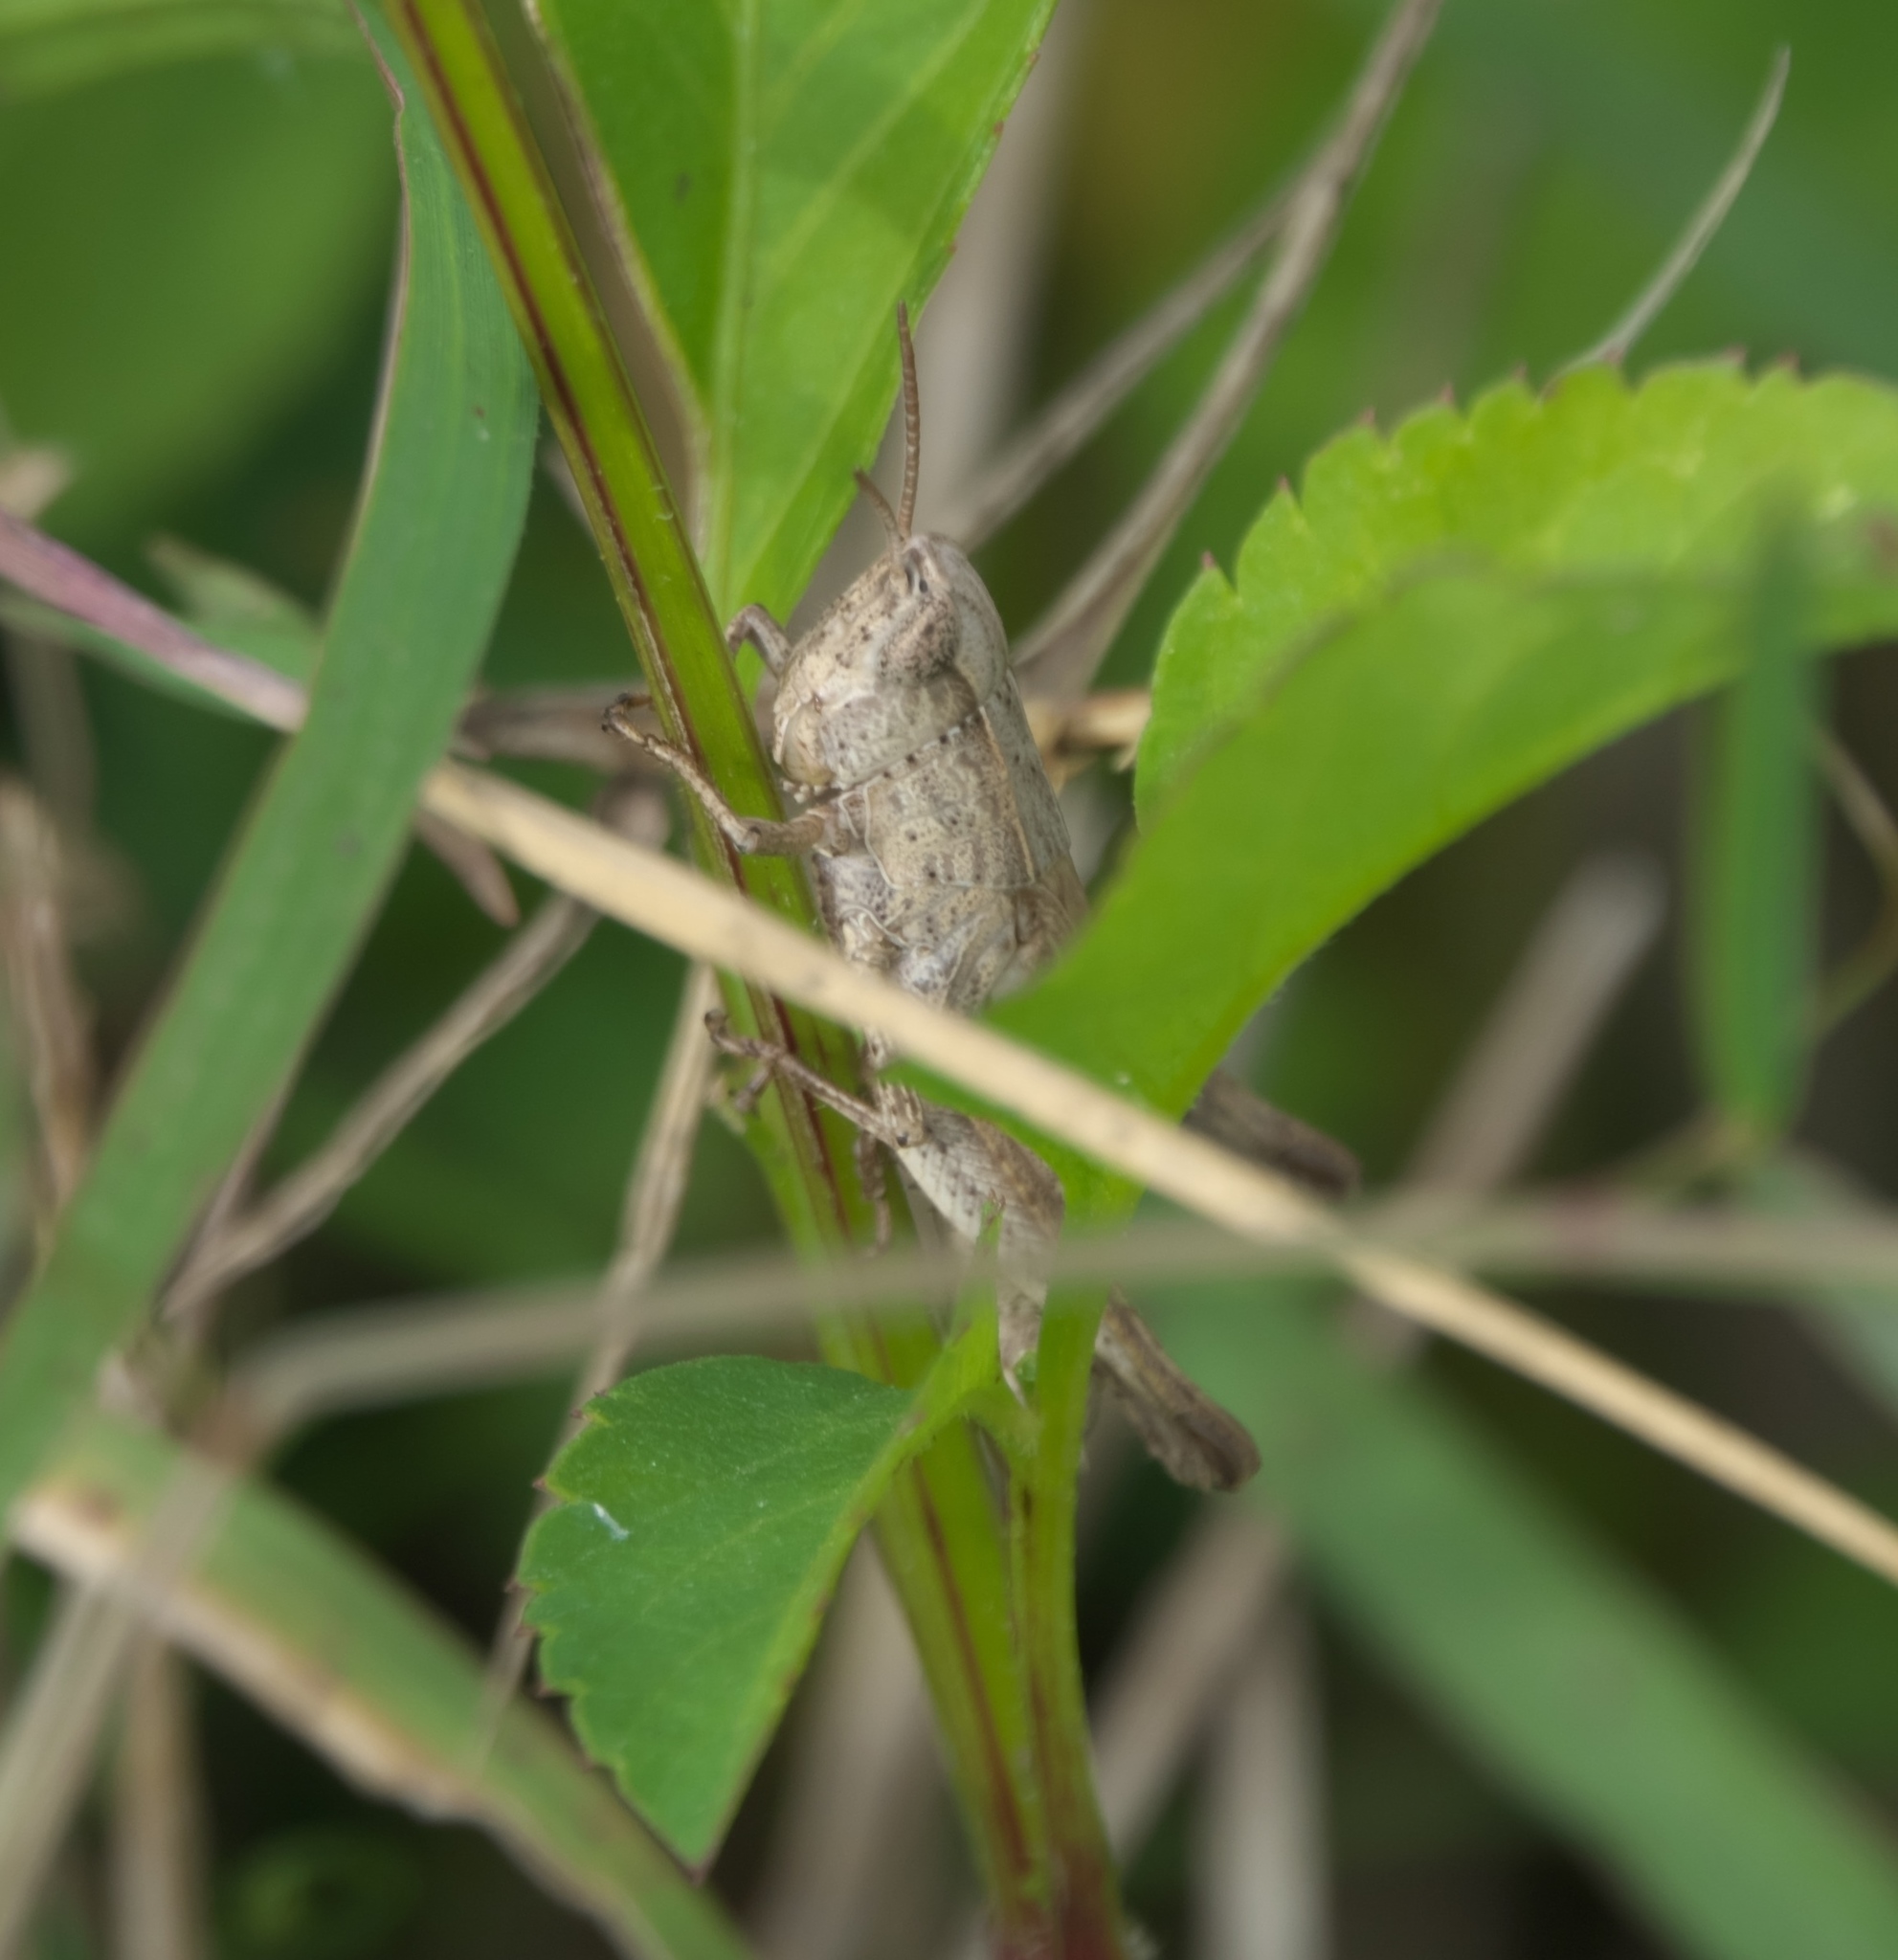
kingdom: Animalia
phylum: Arthropoda
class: Insecta
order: Orthoptera
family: Acrididae
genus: Dichromorpha
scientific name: Dichromorpha viridis
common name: Short-winged green grasshopper
